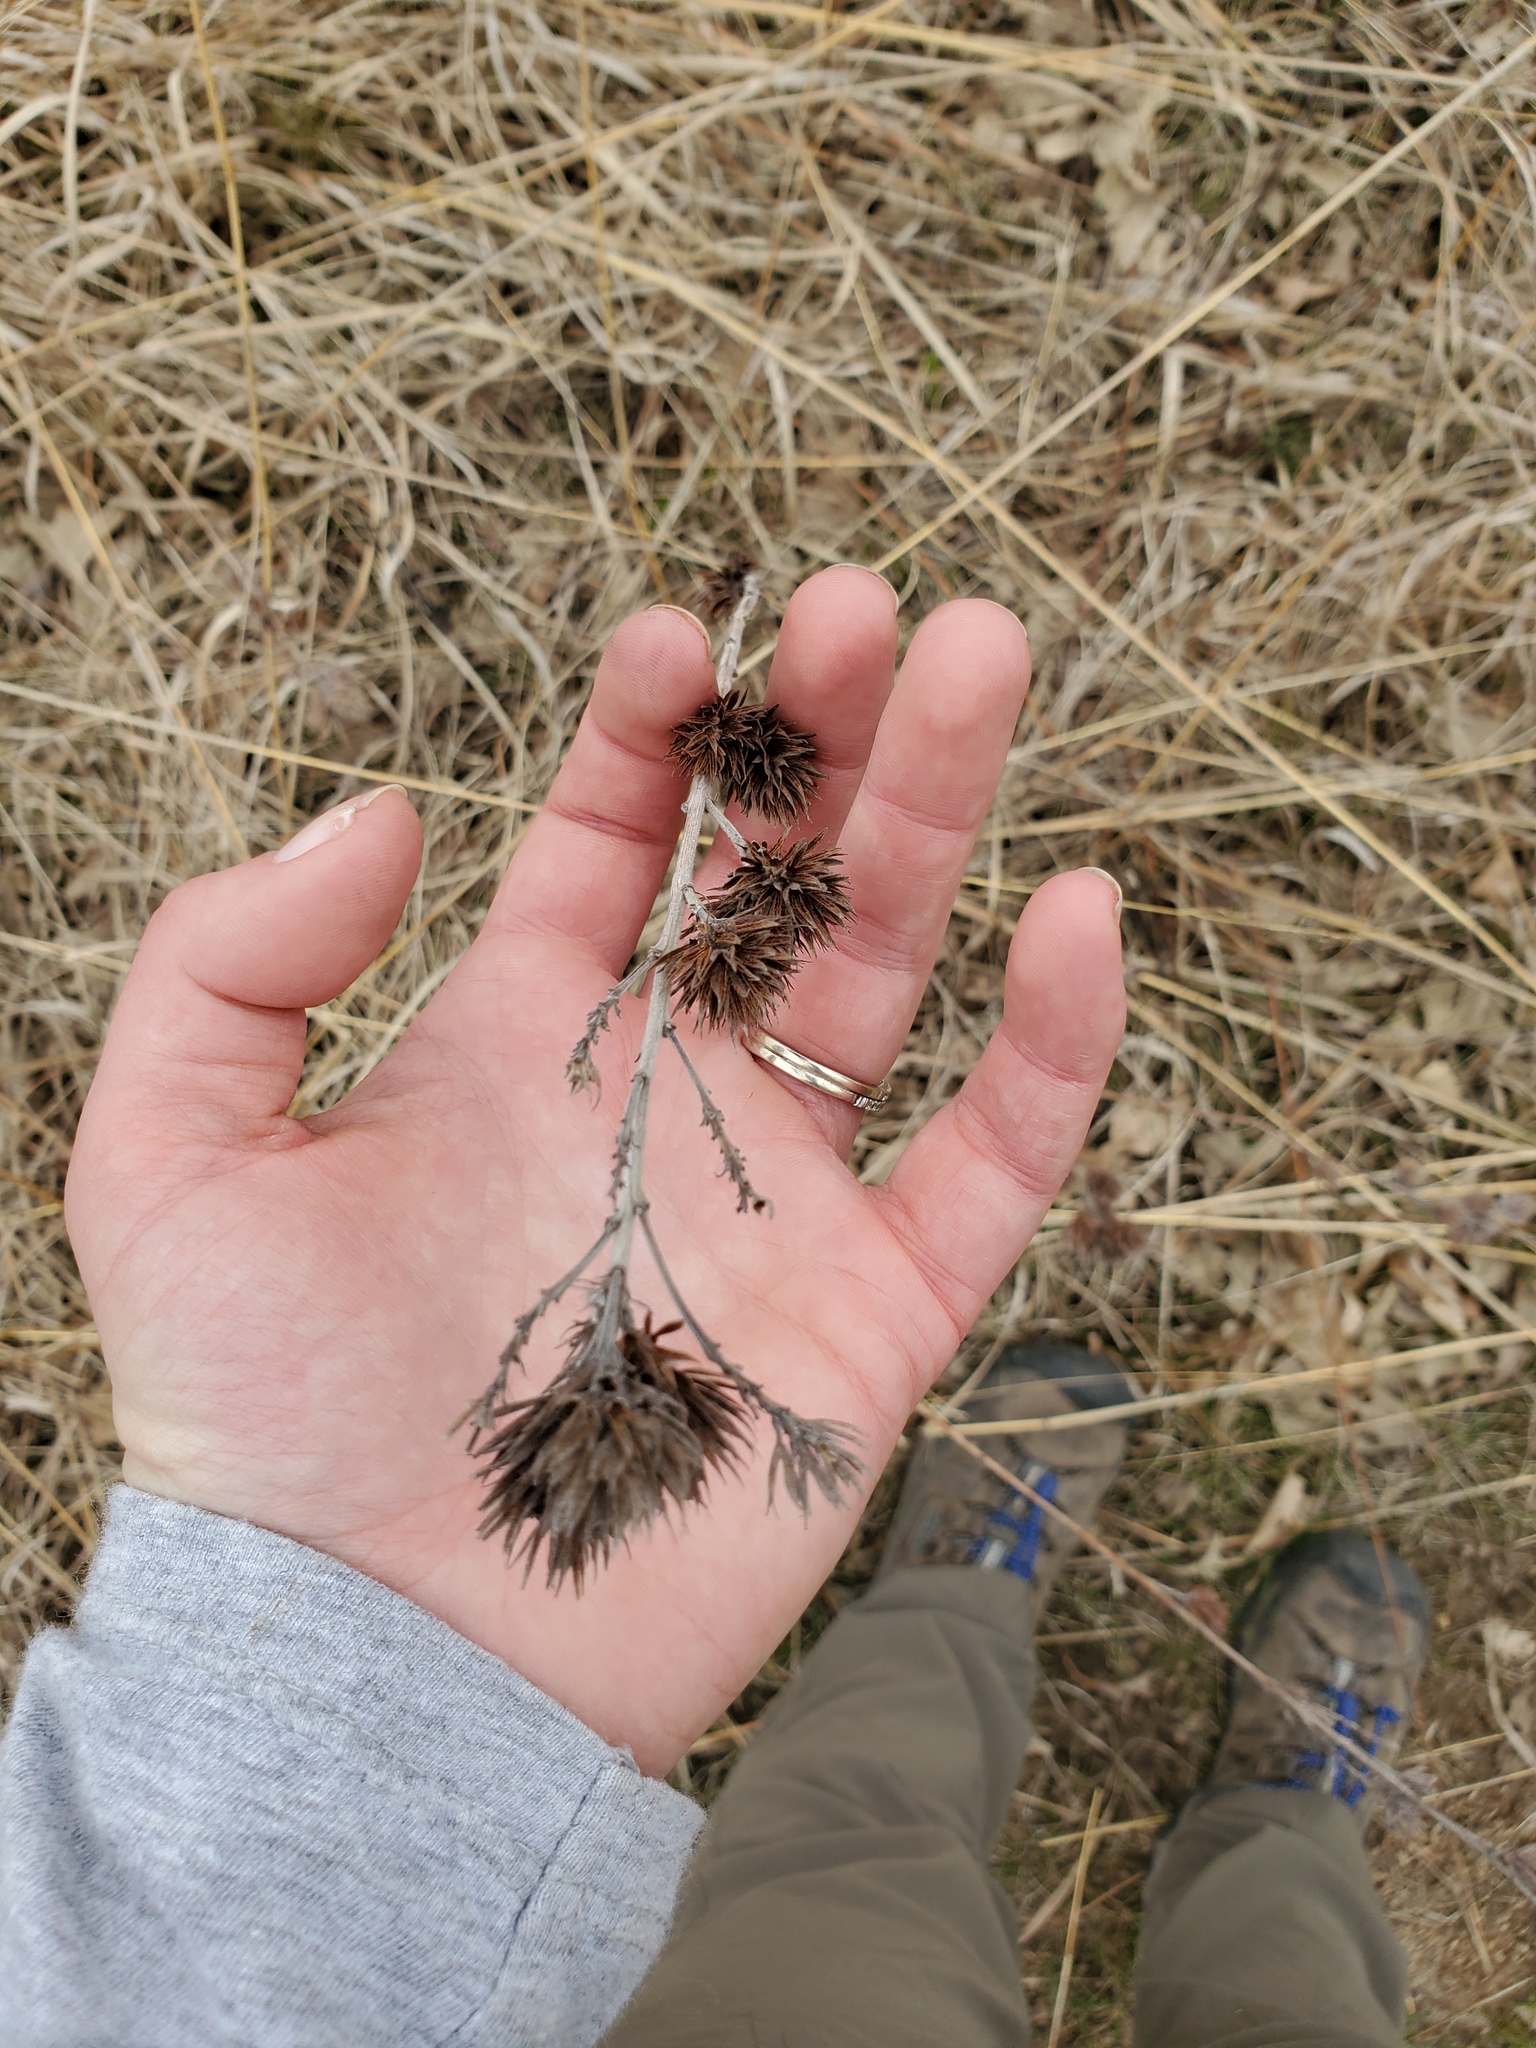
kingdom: Plantae
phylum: Tracheophyta
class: Magnoliopsida
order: Fabales
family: Fabaceae
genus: Lespedeza
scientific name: Lespedeza capitata
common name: Dusty clover
